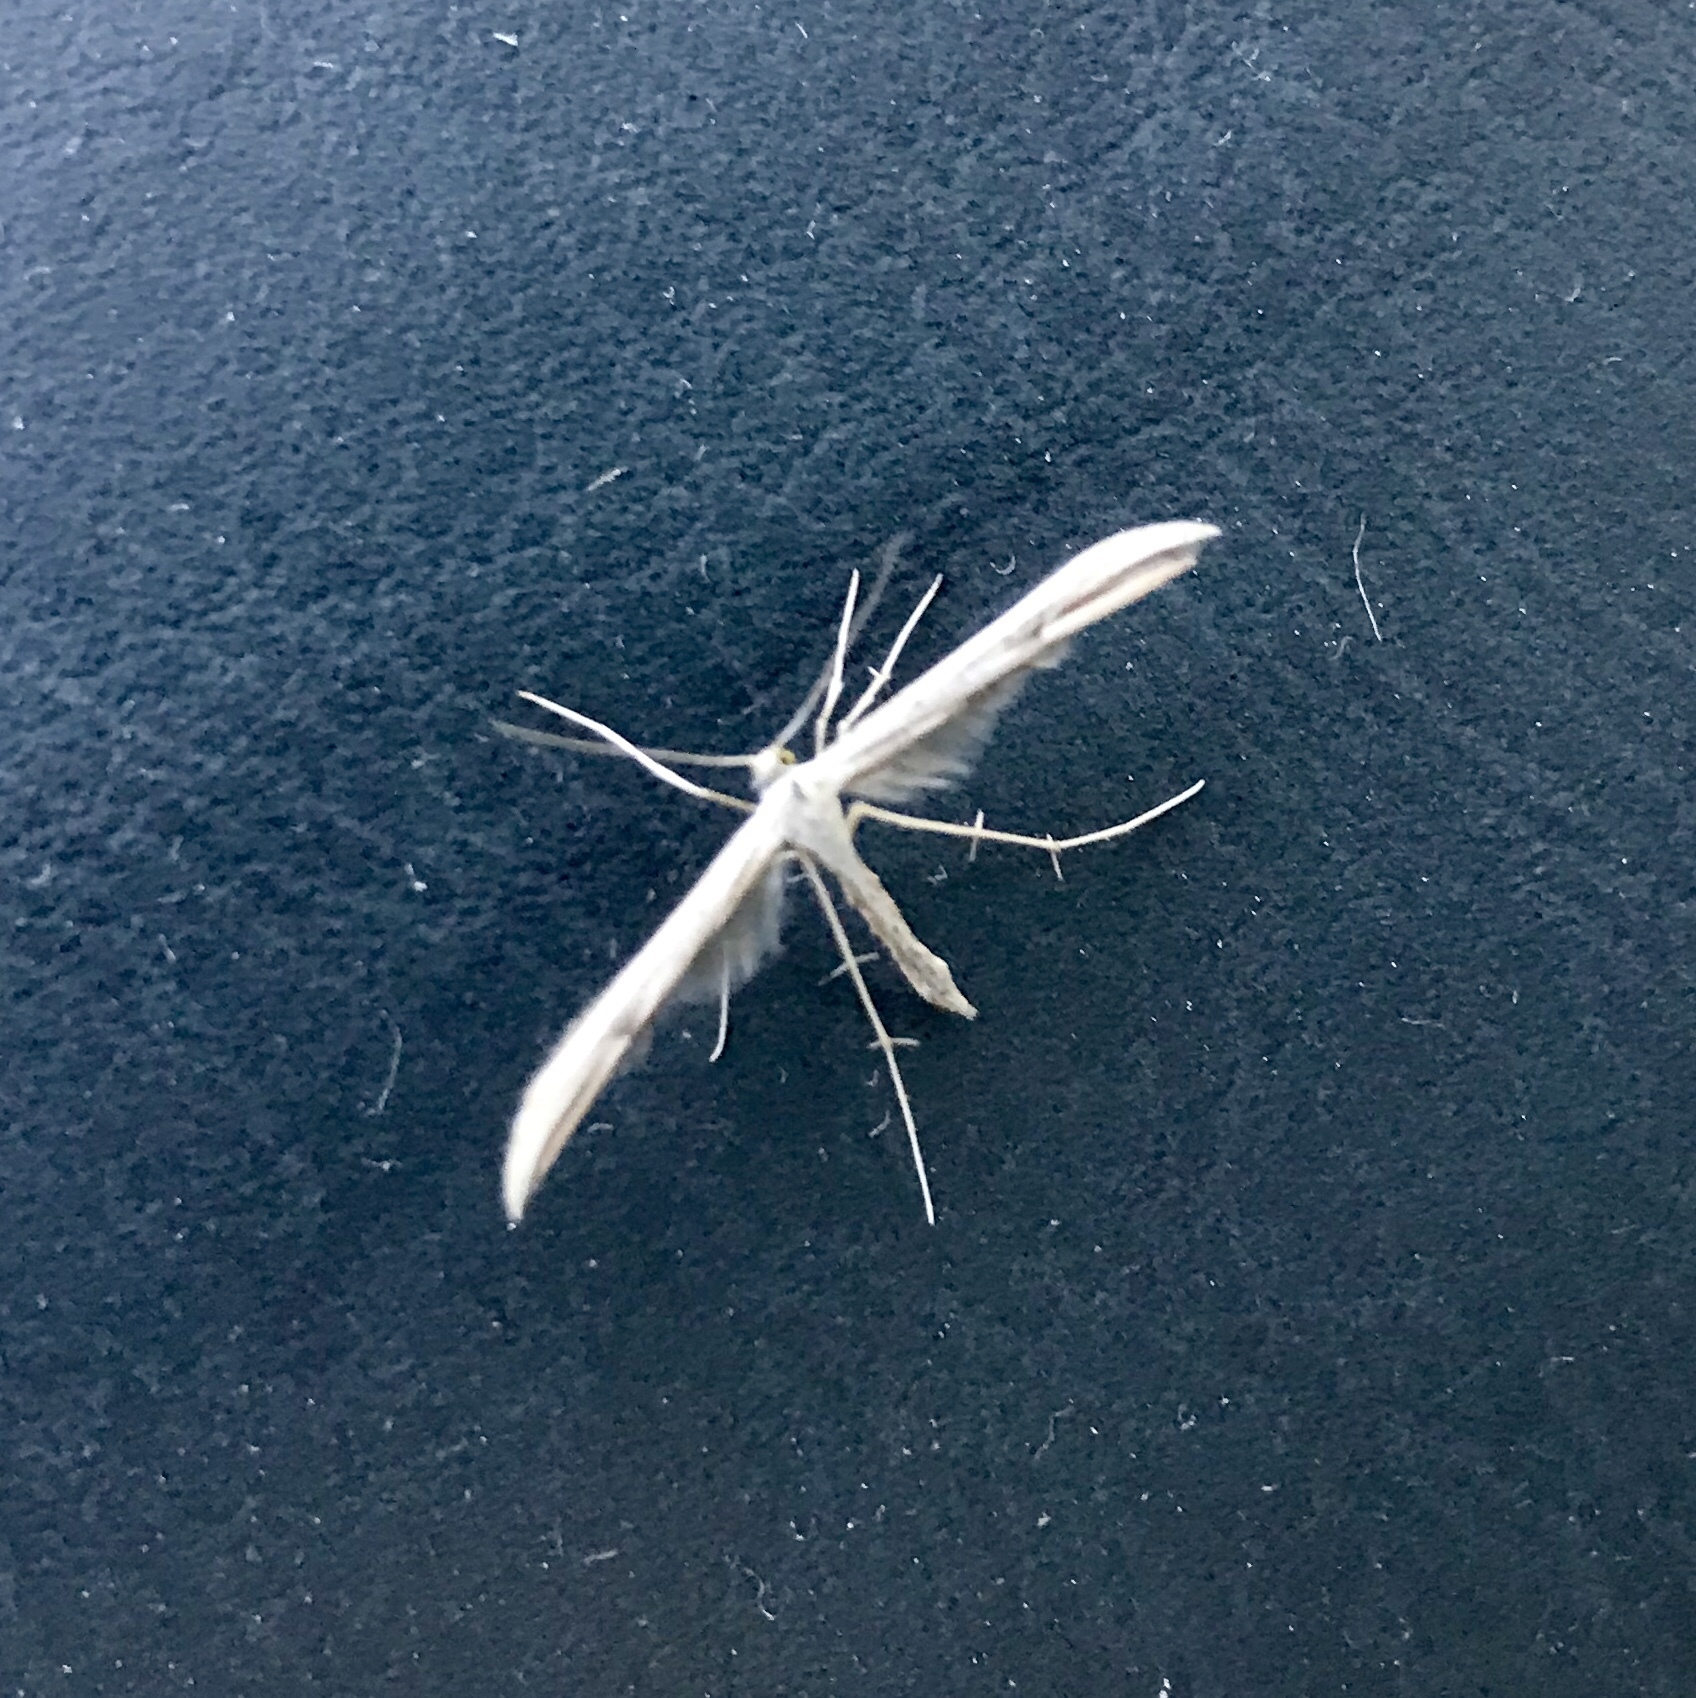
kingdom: Animalia
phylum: Arthropoda
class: Insecta
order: Lepidoptera
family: Pterophoridae
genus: Emmelina
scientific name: Emmelina monodactyla
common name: Common plume
